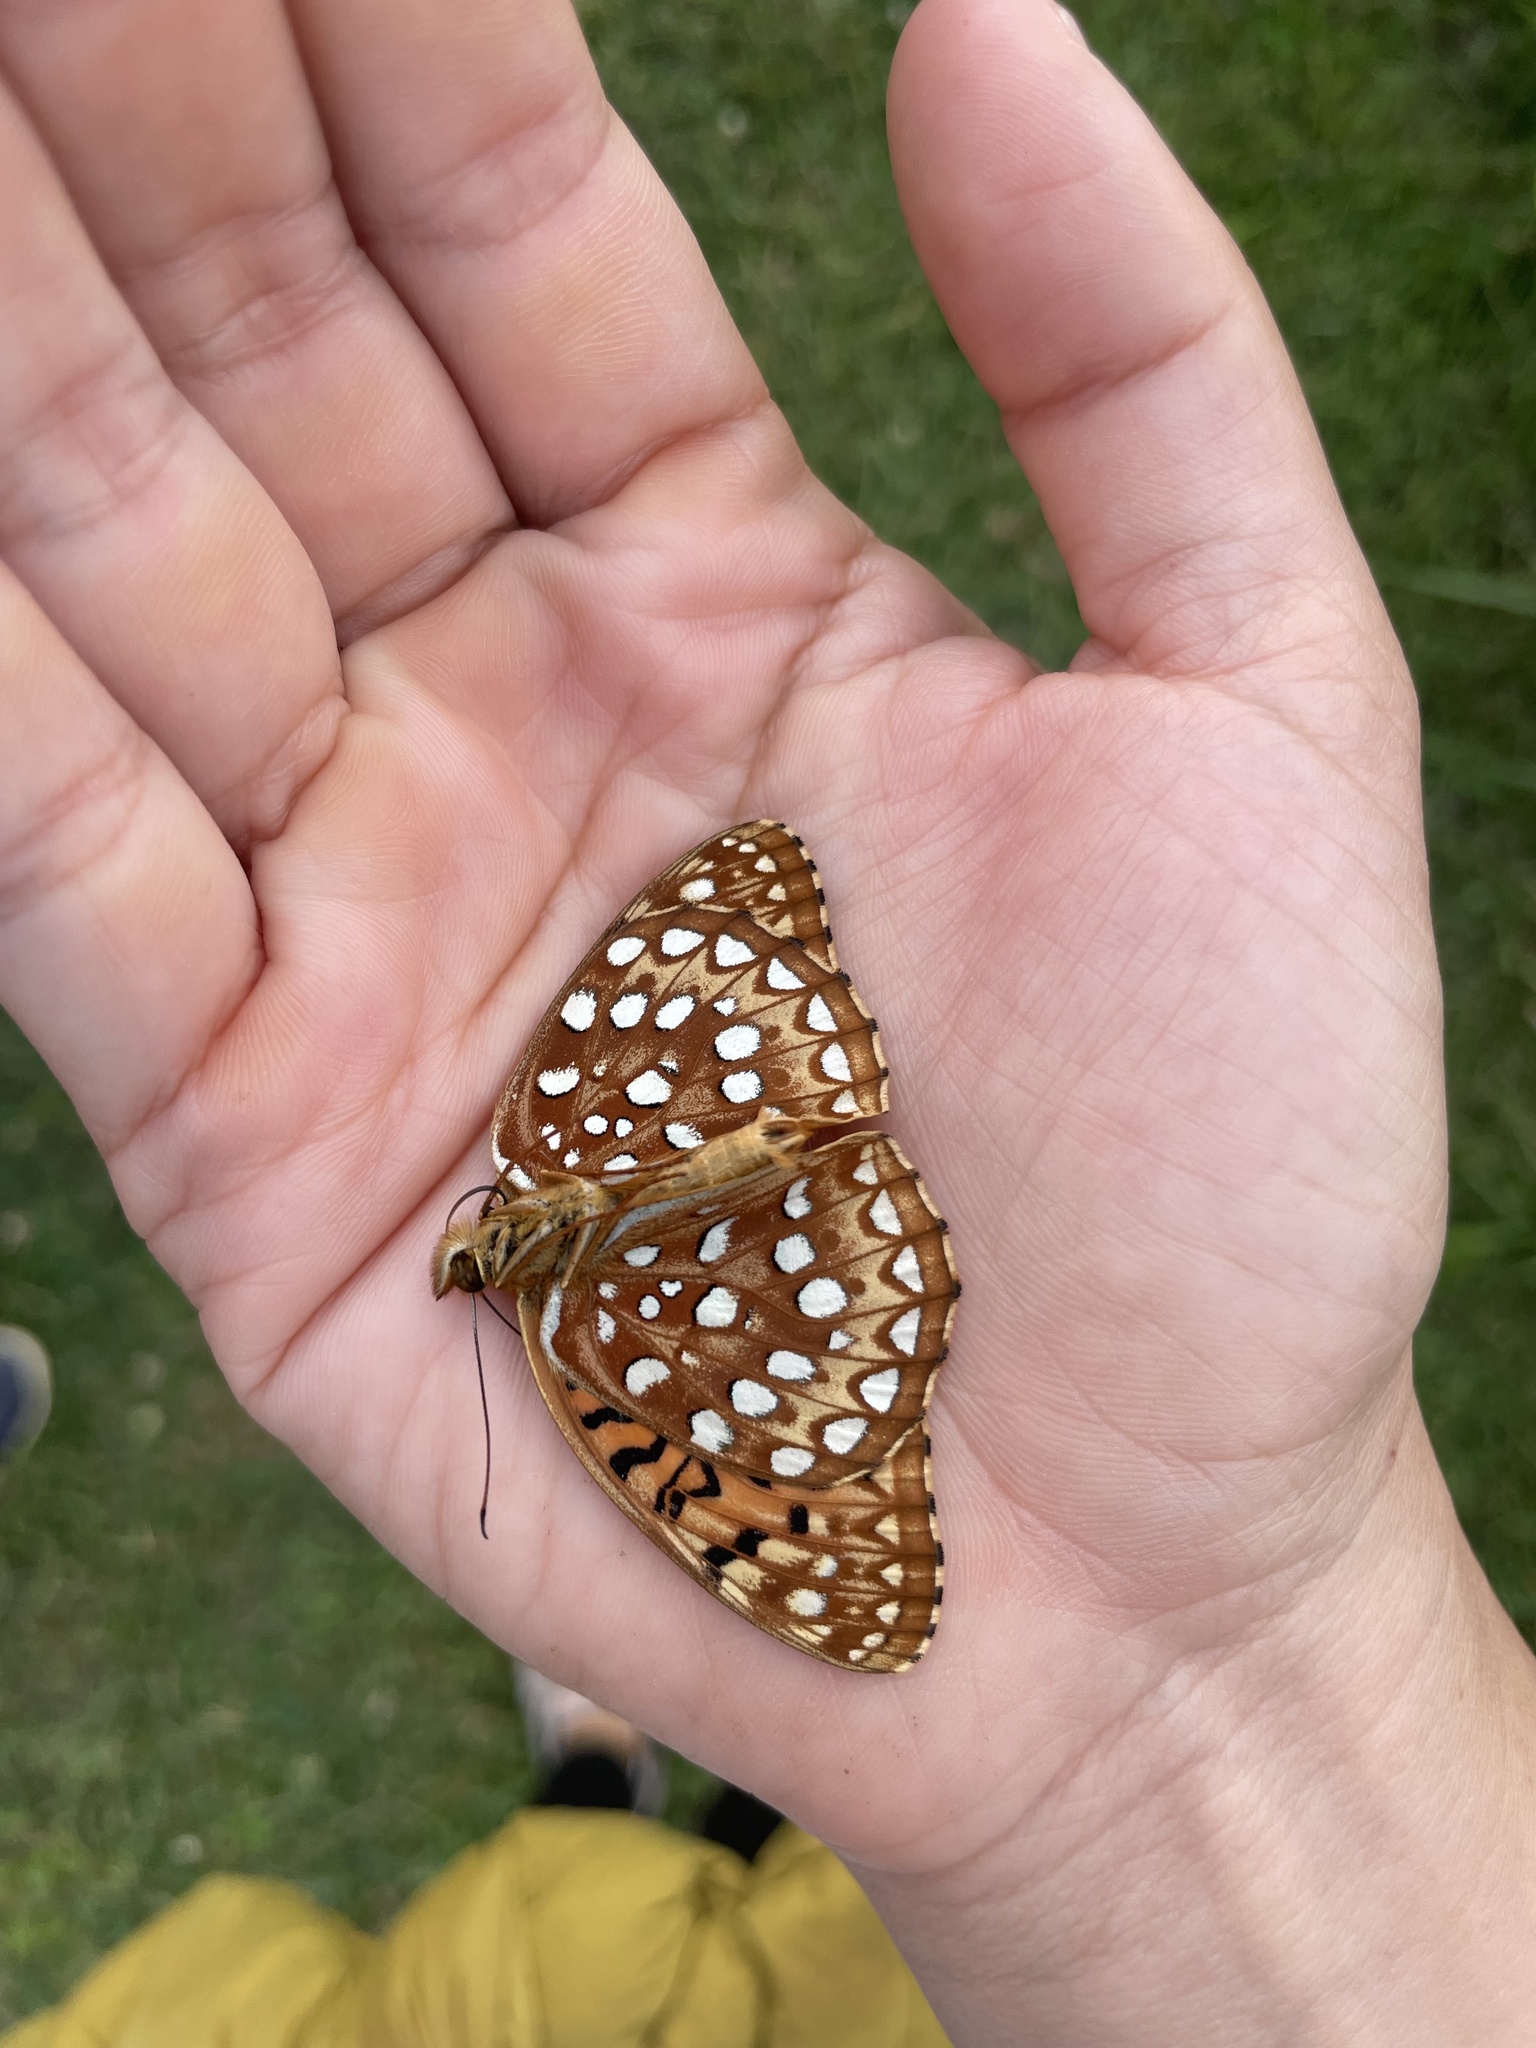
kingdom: Animalia
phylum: Arthropoda
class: Insecta
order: Lepidoptera
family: Nymphalidae
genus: Speyeria
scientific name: Speyeria aphrodite
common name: Aphrodite friitllary
